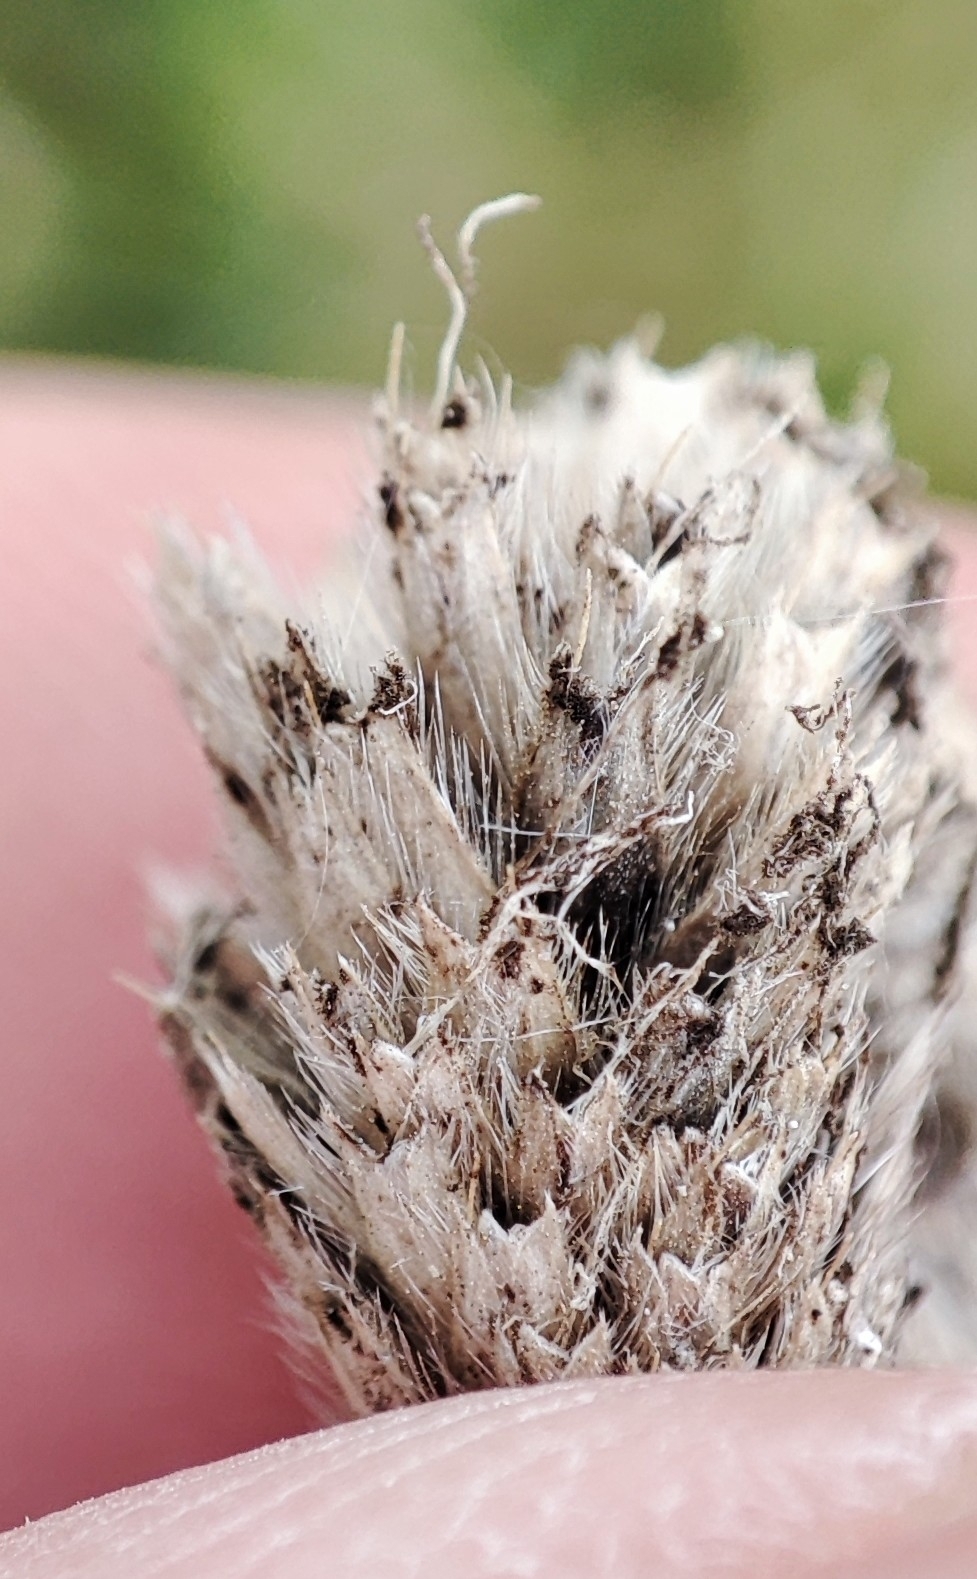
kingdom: Plantae
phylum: Tracheophyta
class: Liliopsida
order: Poales
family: Poaceae
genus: Alopecurus
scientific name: Alopecurus arundinaceus
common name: Creeping meadow foxtail
